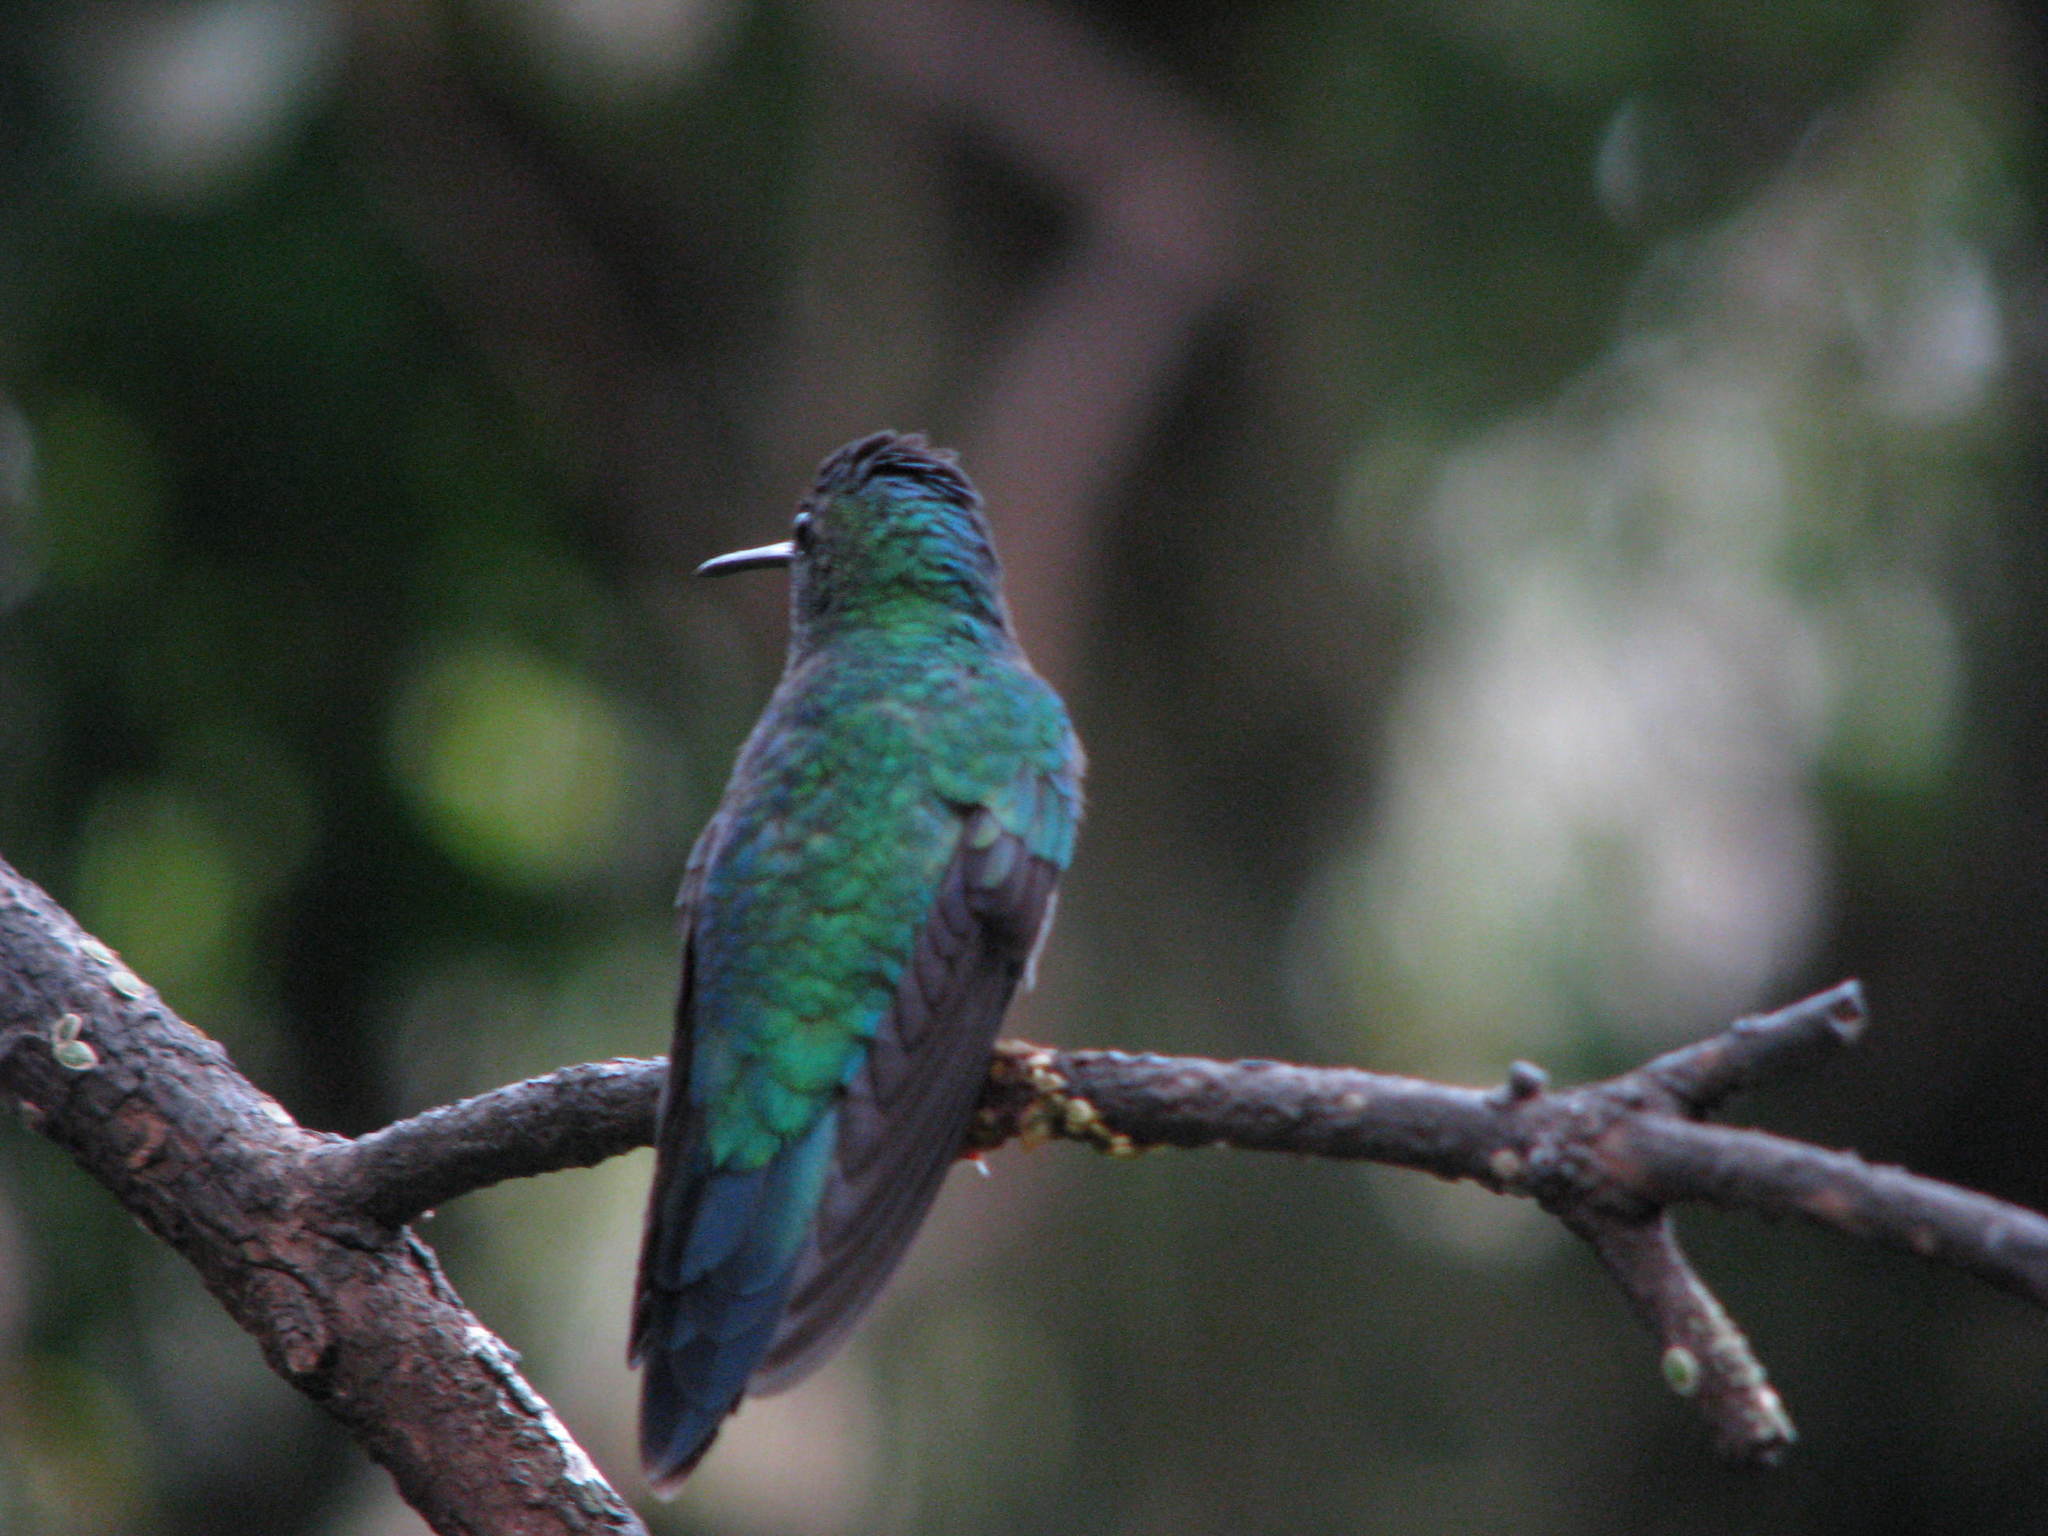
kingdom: Animalia
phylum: Chordata
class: Aves
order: Apodiformes
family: Trochilidae
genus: Thalurania
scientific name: Thalurania glaucopis
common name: Violet-capped woodnymph
